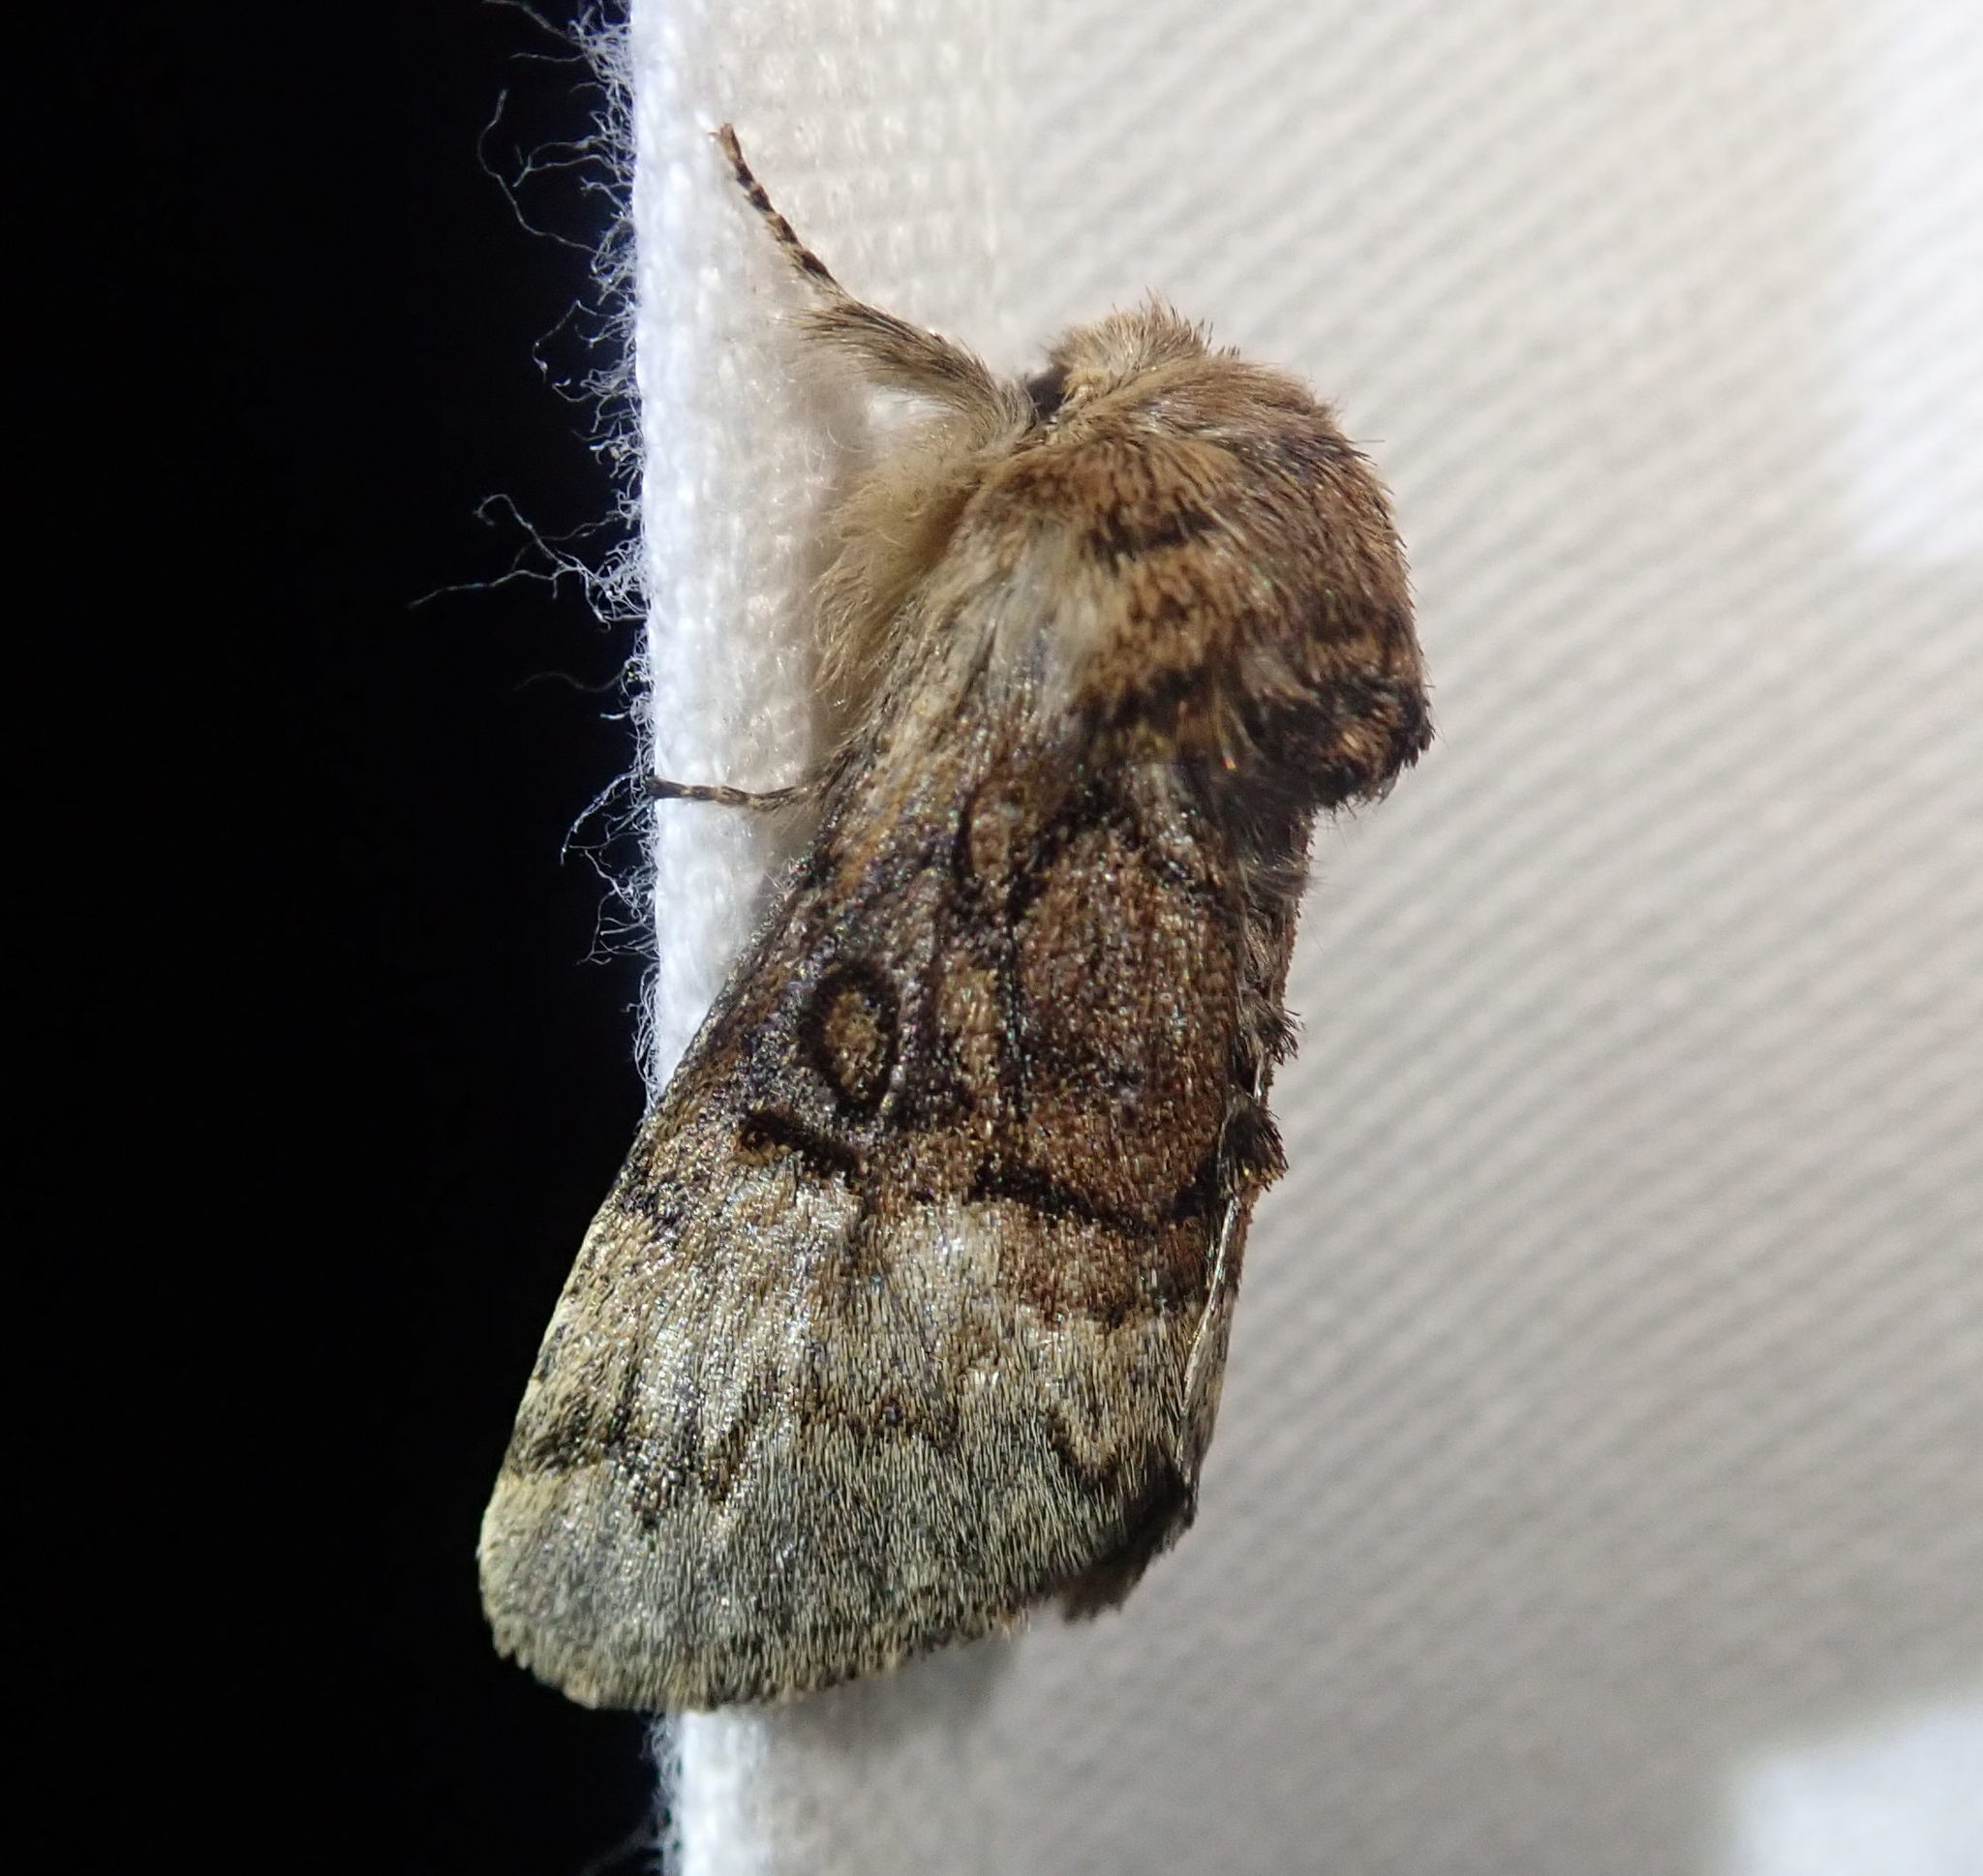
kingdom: Animalia
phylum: Arthropoda
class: Insecta
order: Lepidoptera
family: Noctuidae
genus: Colocasia
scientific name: Colocasia coryli
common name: Nut-tree tussock
